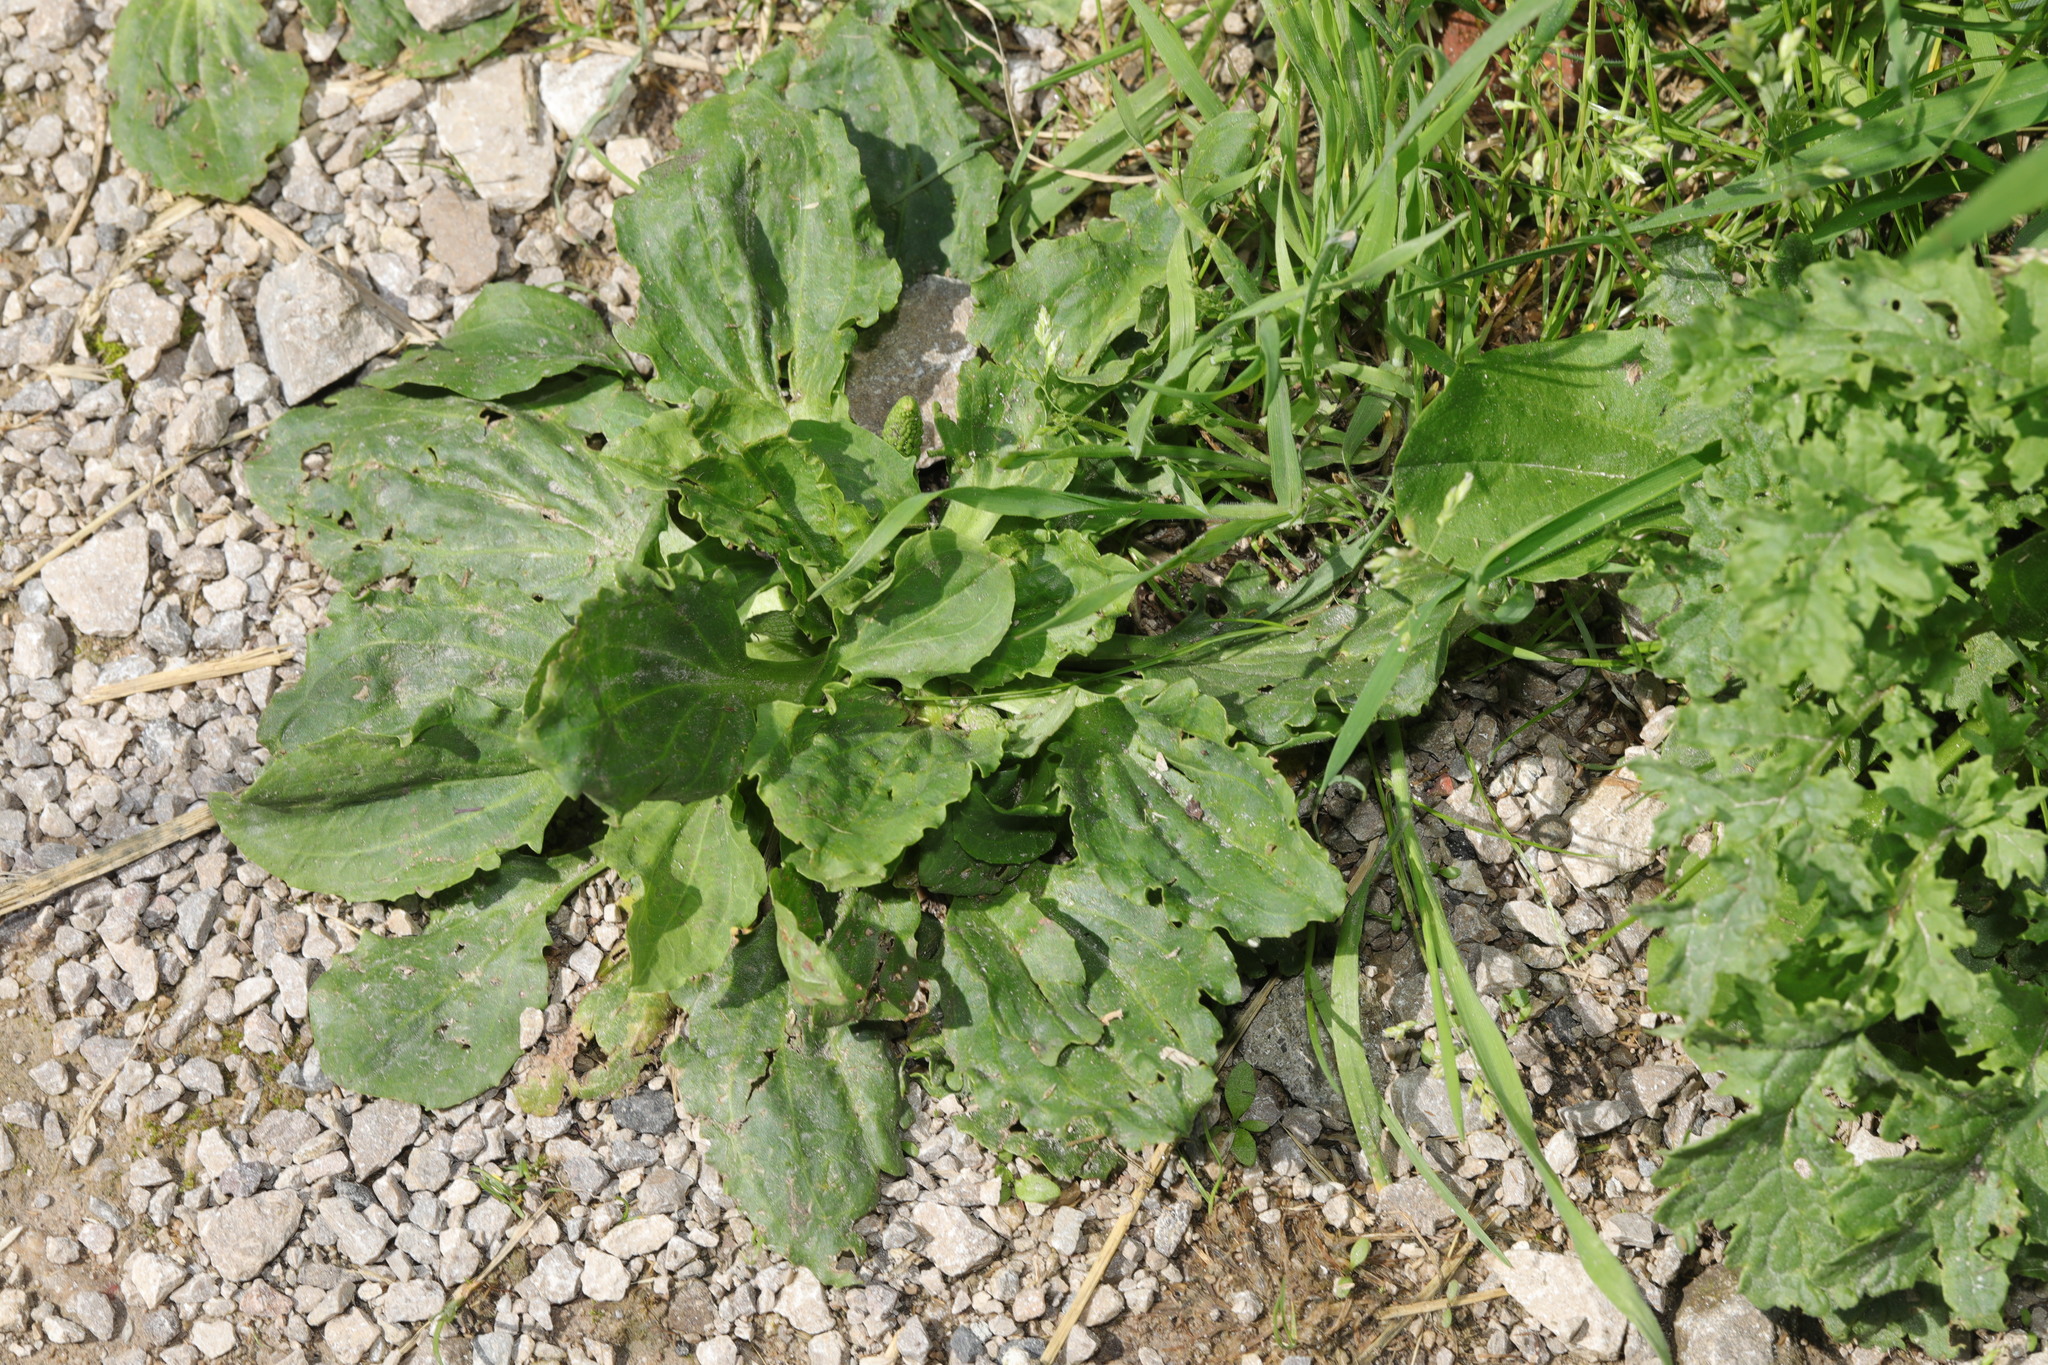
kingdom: Plantae
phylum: Tracheophyta
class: Magnoliopsida
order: Lamiales
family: Plantaginaceae
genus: Plantago
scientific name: Plantago major
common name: Common plantain
